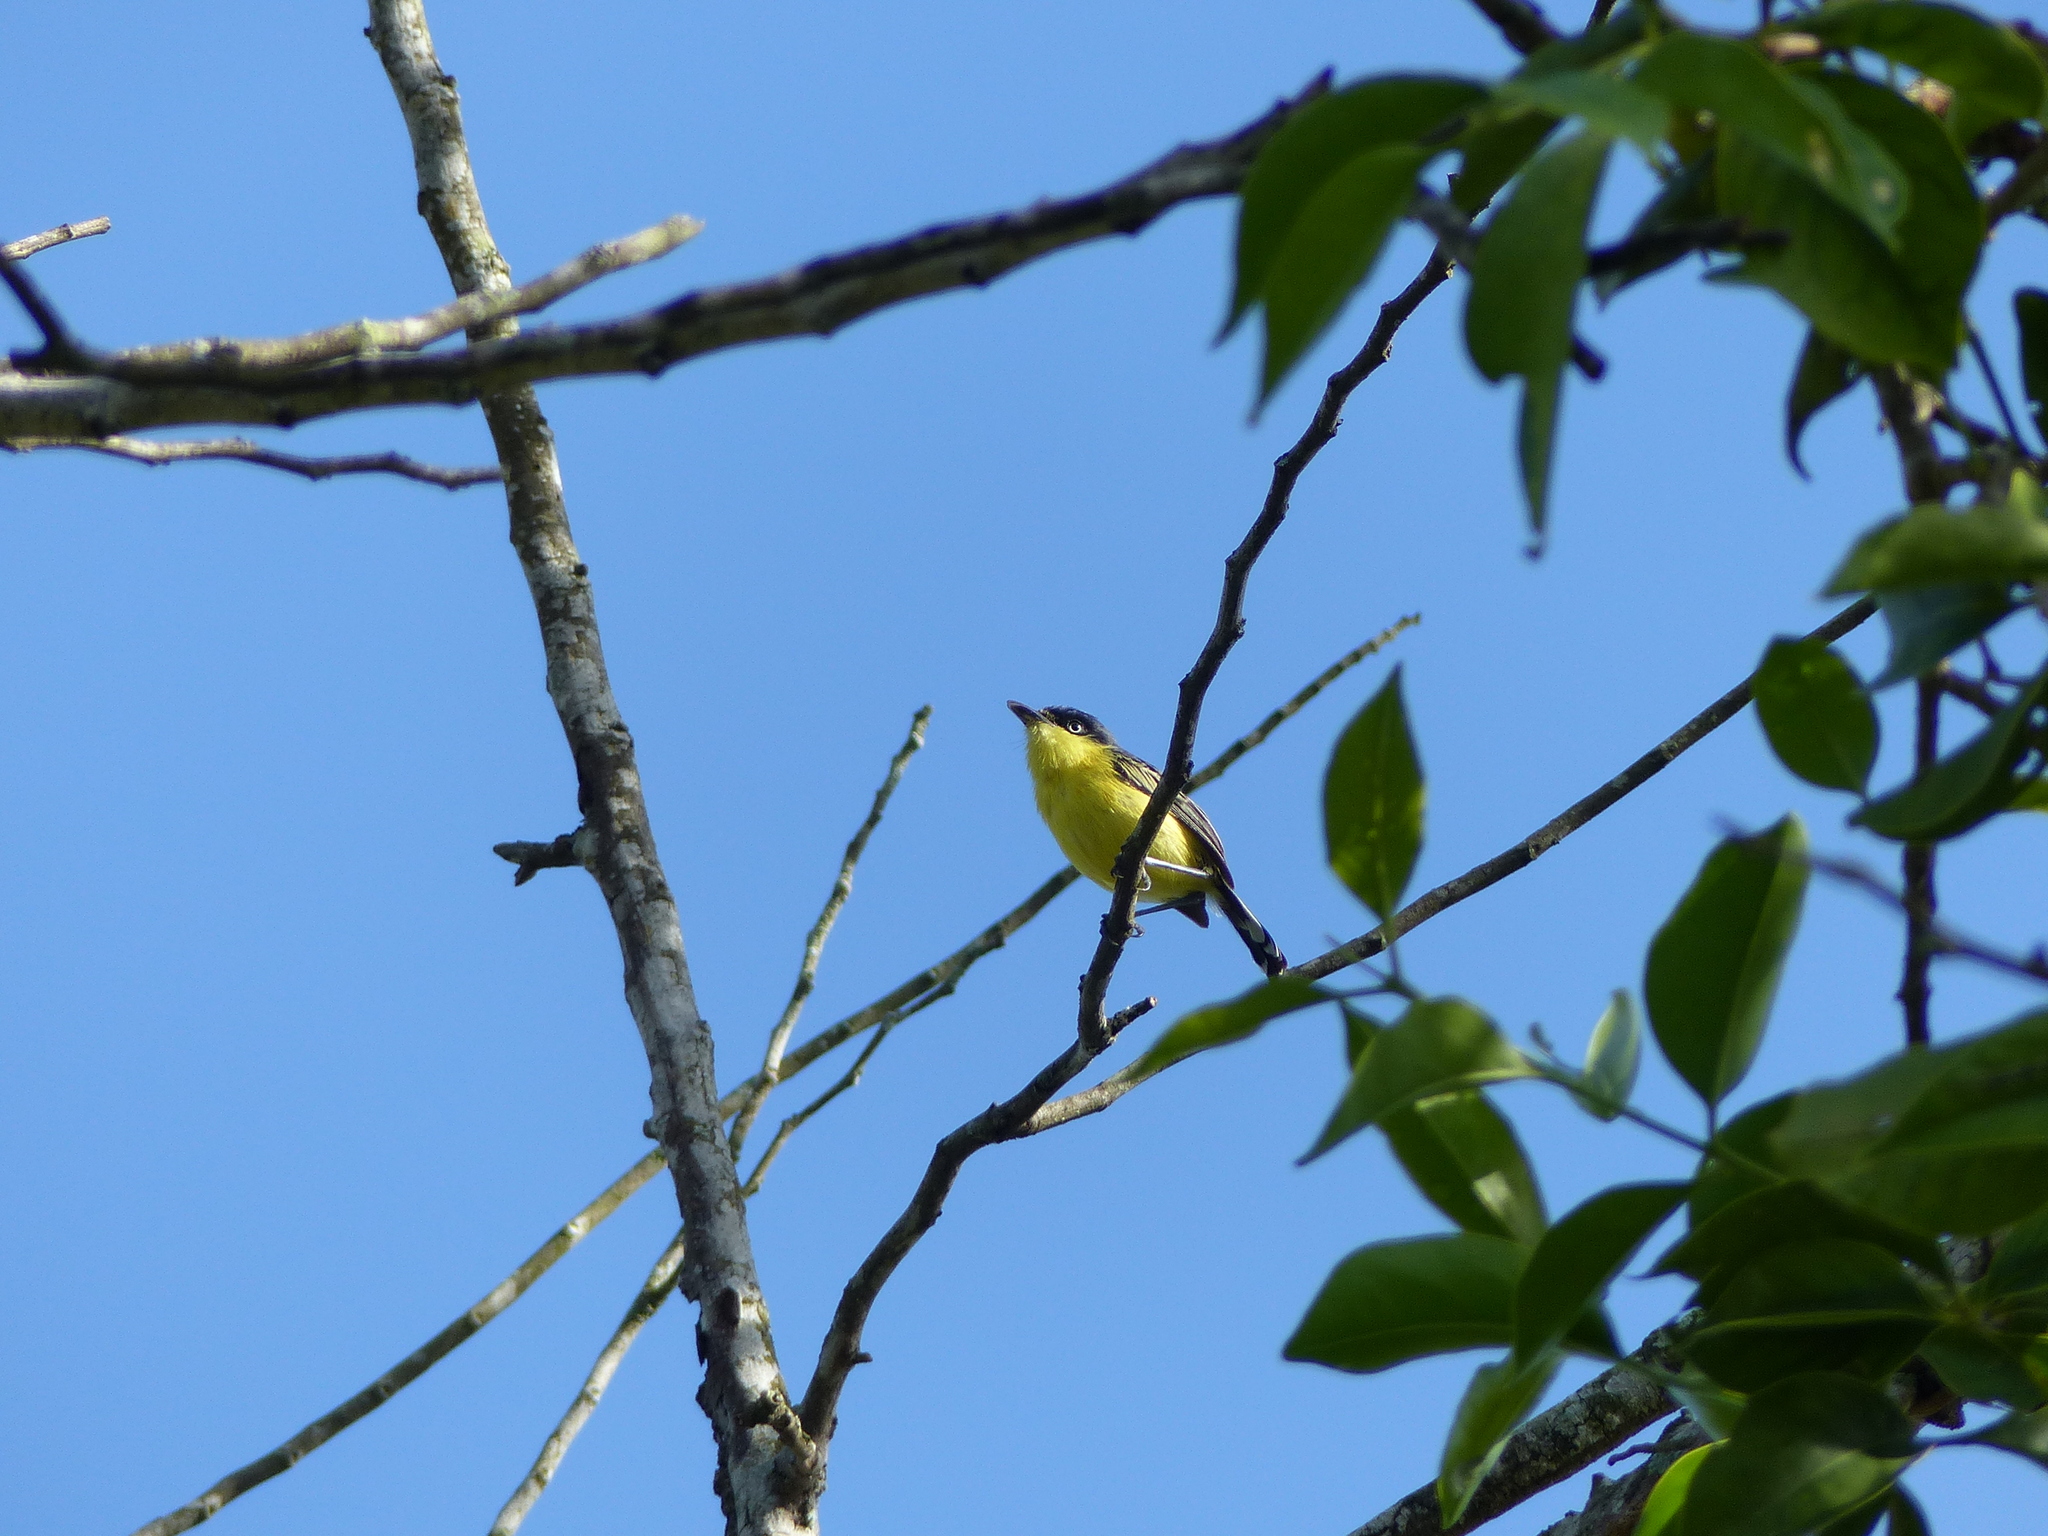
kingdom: Animalia
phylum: Chordata
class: Aves
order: Passeriformes
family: Tyrannidae
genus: Todirostrum
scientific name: Todirostrum cinereum
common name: Common tody-flycatcher
